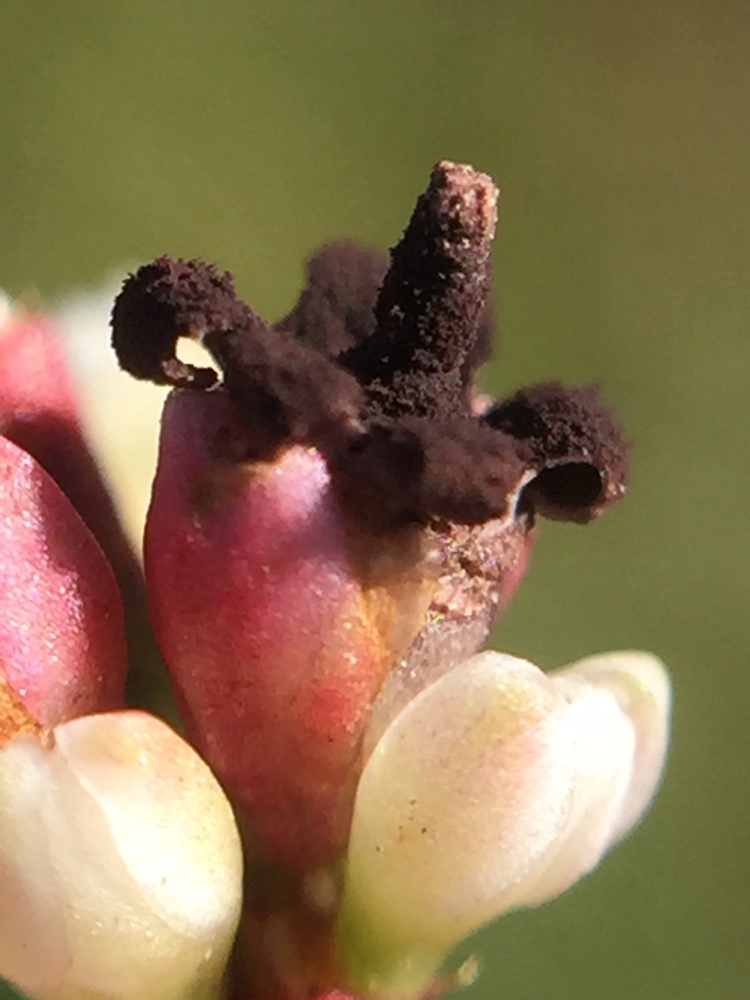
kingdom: Fungi
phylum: Basidiomycota
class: Microbotryomycetes
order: Microbotryales
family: Microbotryaceae
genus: Sphacelotheca
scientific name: Sphacelotheca polygoni-serrulati
